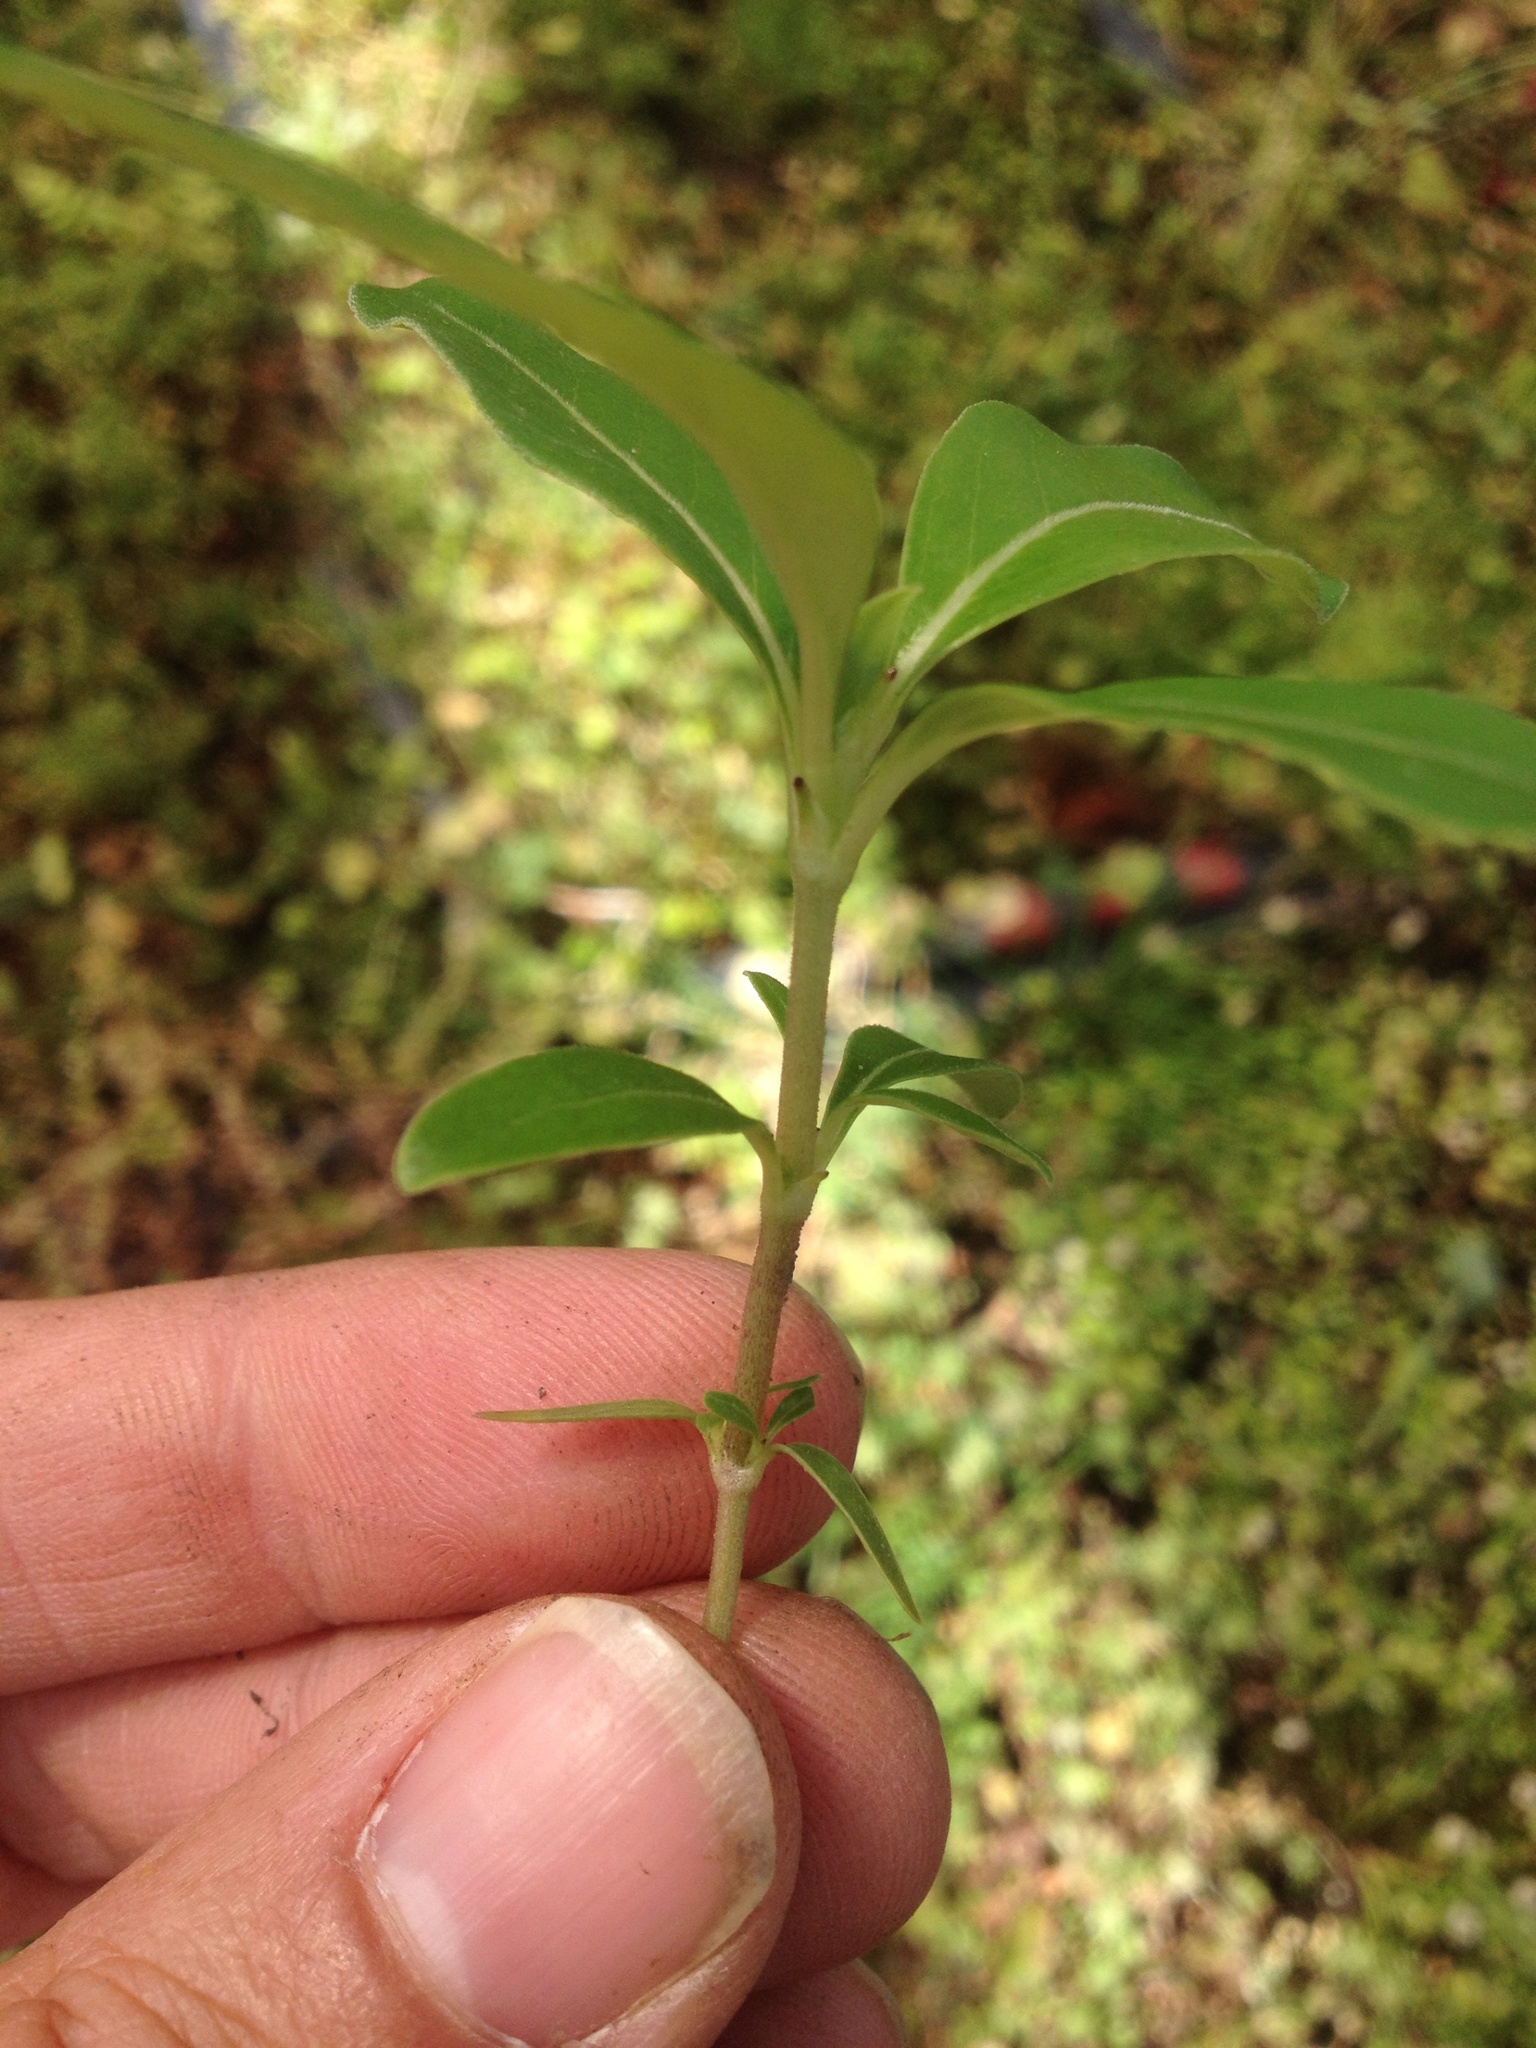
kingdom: Plantae
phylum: Tracheophyta
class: Magnoliopsida
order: Gentianales
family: Rubiaceae
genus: Coprosma
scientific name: Coprosma robusta
